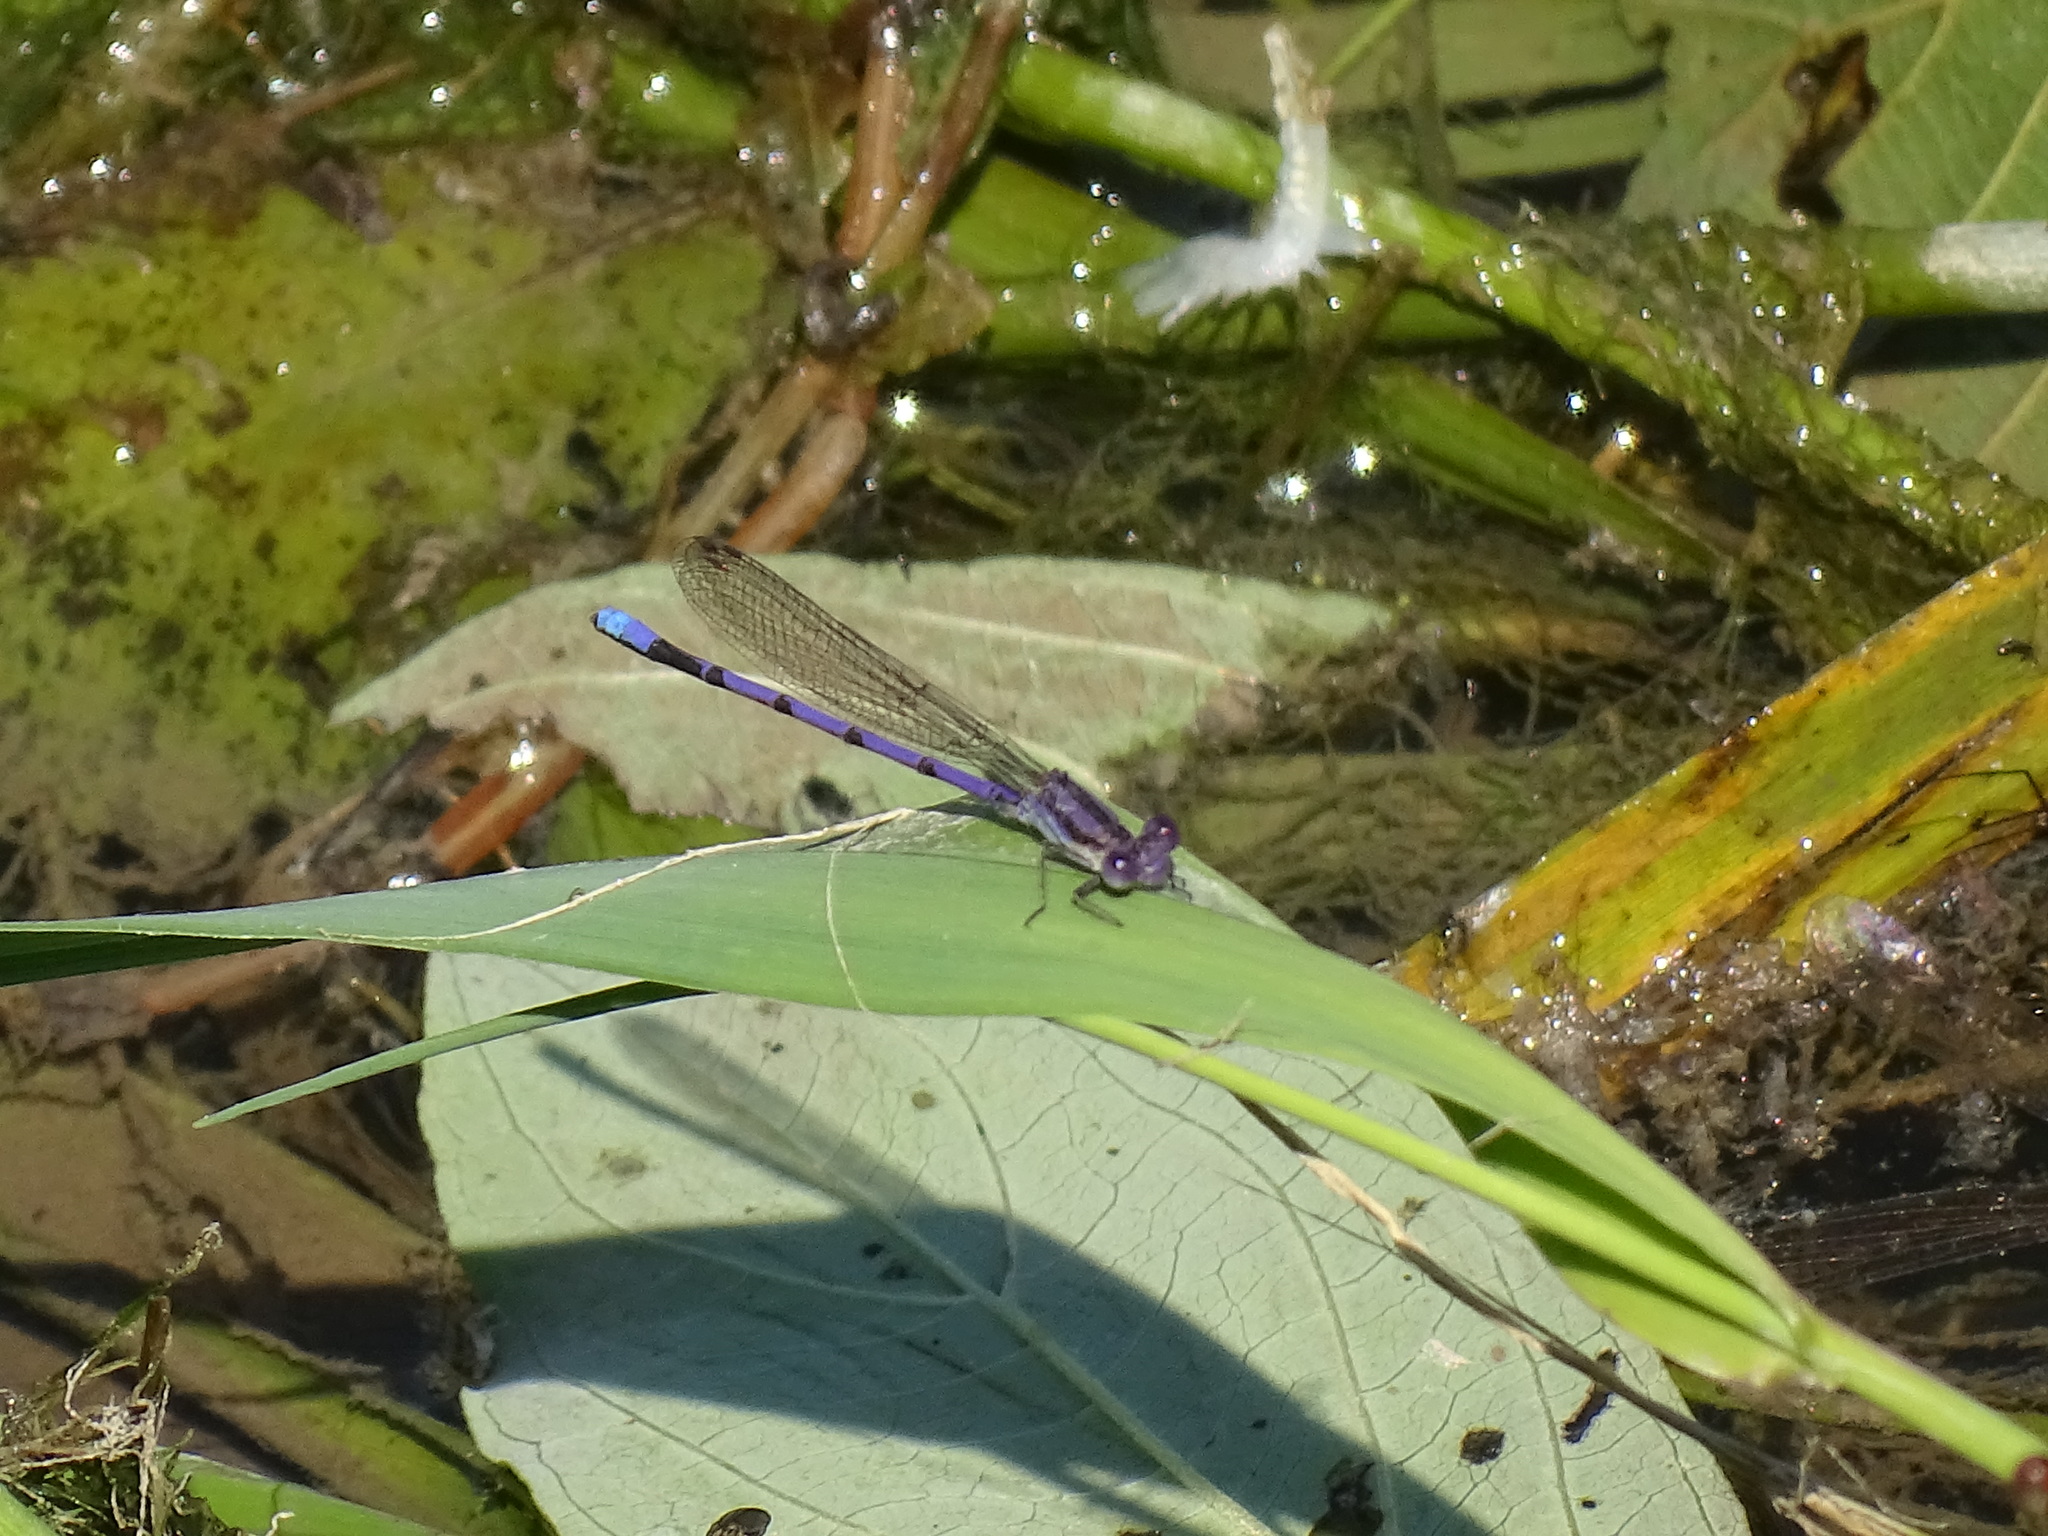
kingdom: Animalia
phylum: Arthropoda
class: Insecta
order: Odonata
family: Coenagrionidae
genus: Argia
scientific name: Argia fumipennis
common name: Variable dancer
